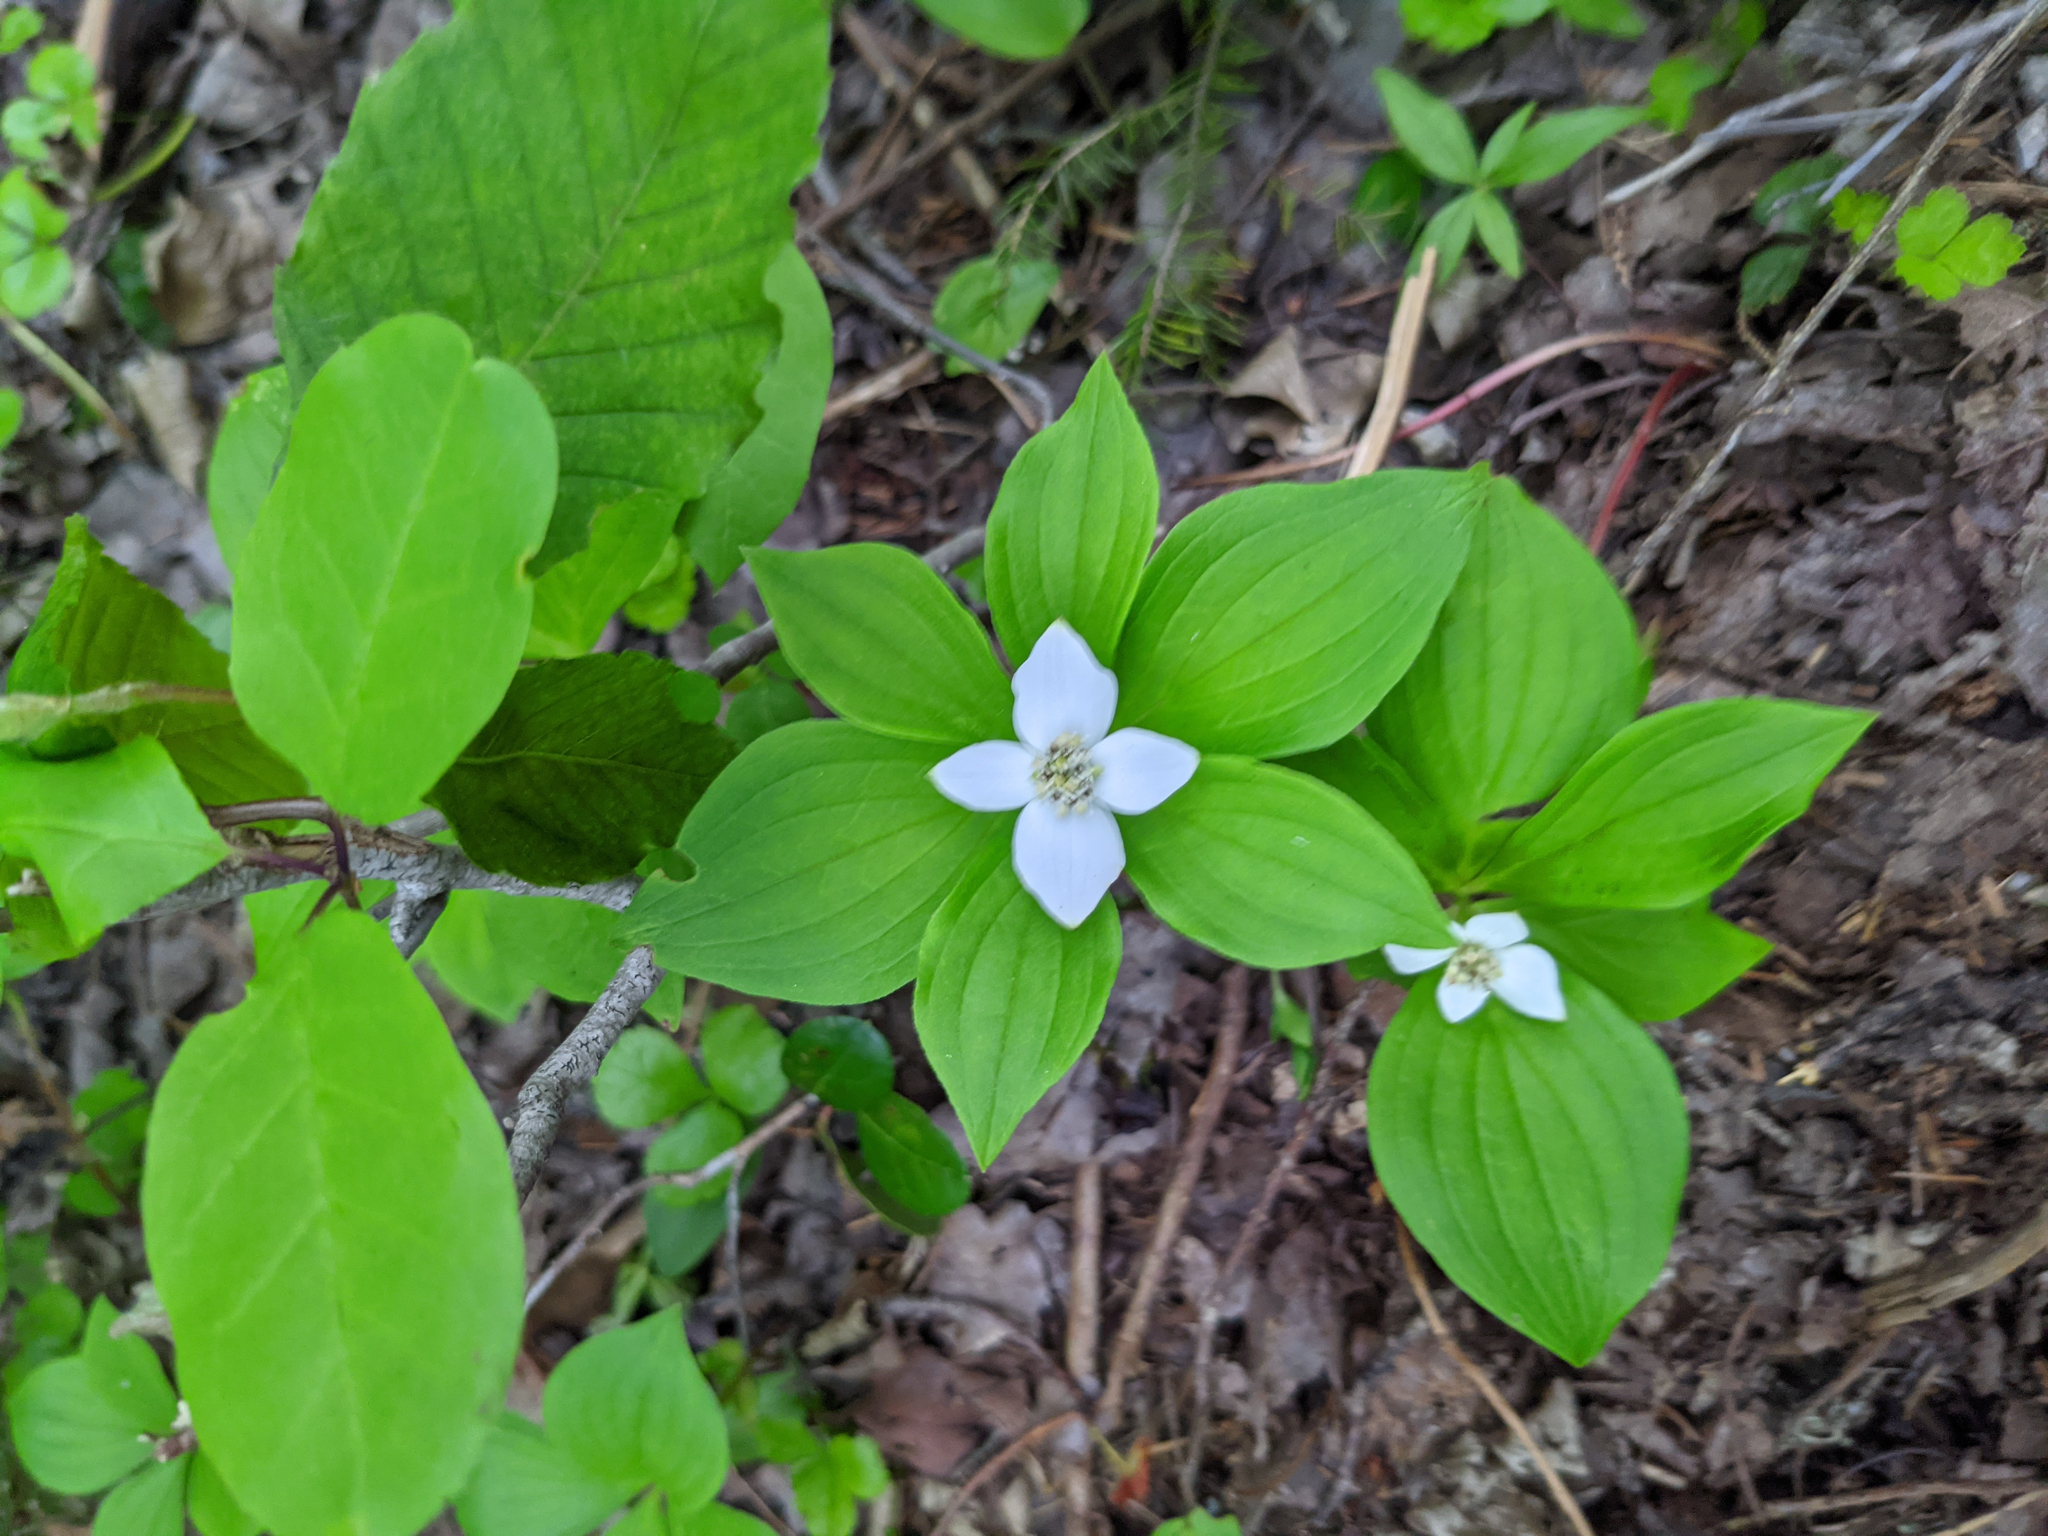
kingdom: Plantae
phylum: Tracheophyta
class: Magnoliopsida
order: Cornales
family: Cornaceae
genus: Cornus
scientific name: Cornus canadensis
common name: Creeping dogwood
